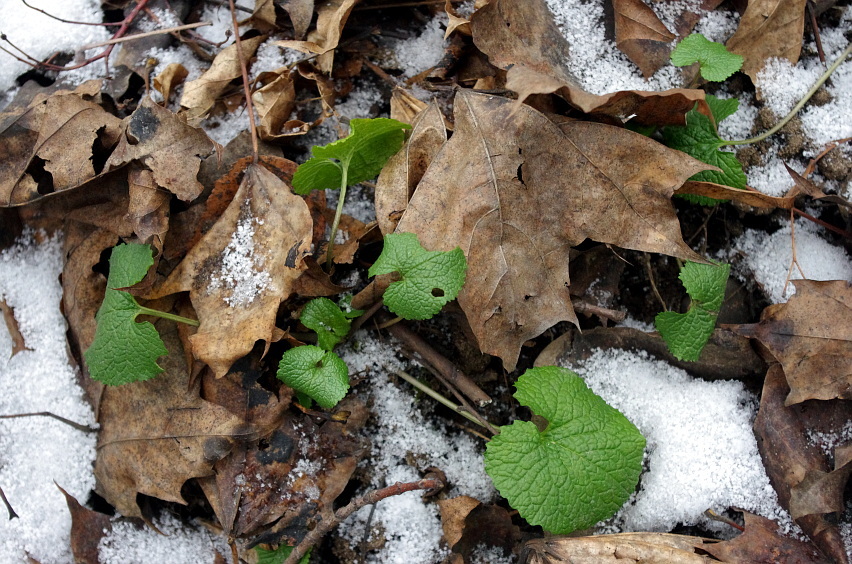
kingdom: Plantae
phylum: Tracheophyta
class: Magnoliopsida
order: Brassicales
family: Brassicaceae
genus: Alliaria
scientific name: Alliaria petiolata
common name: Garlic mustard
